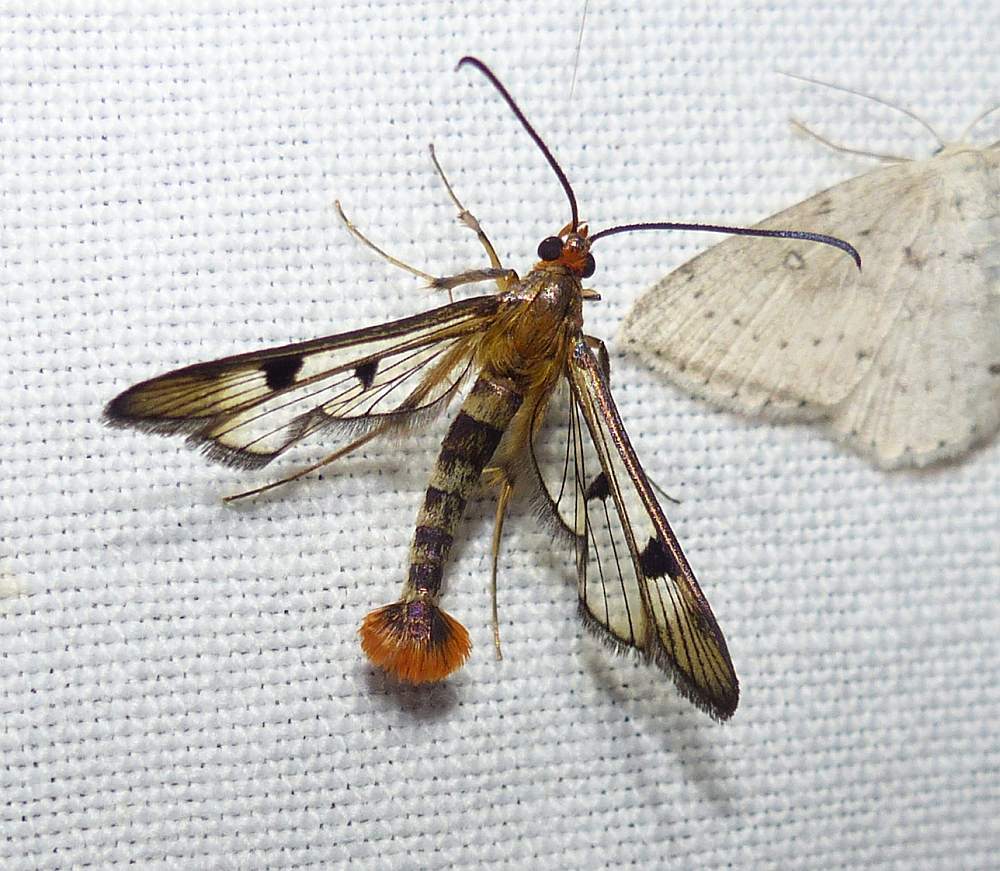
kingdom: Animalia
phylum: Arthropoda
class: Insecta
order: Lepidoptera
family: Sesiidae
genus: Synanthedon
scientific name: Synanthedon acerni
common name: Maple callus borer moth
